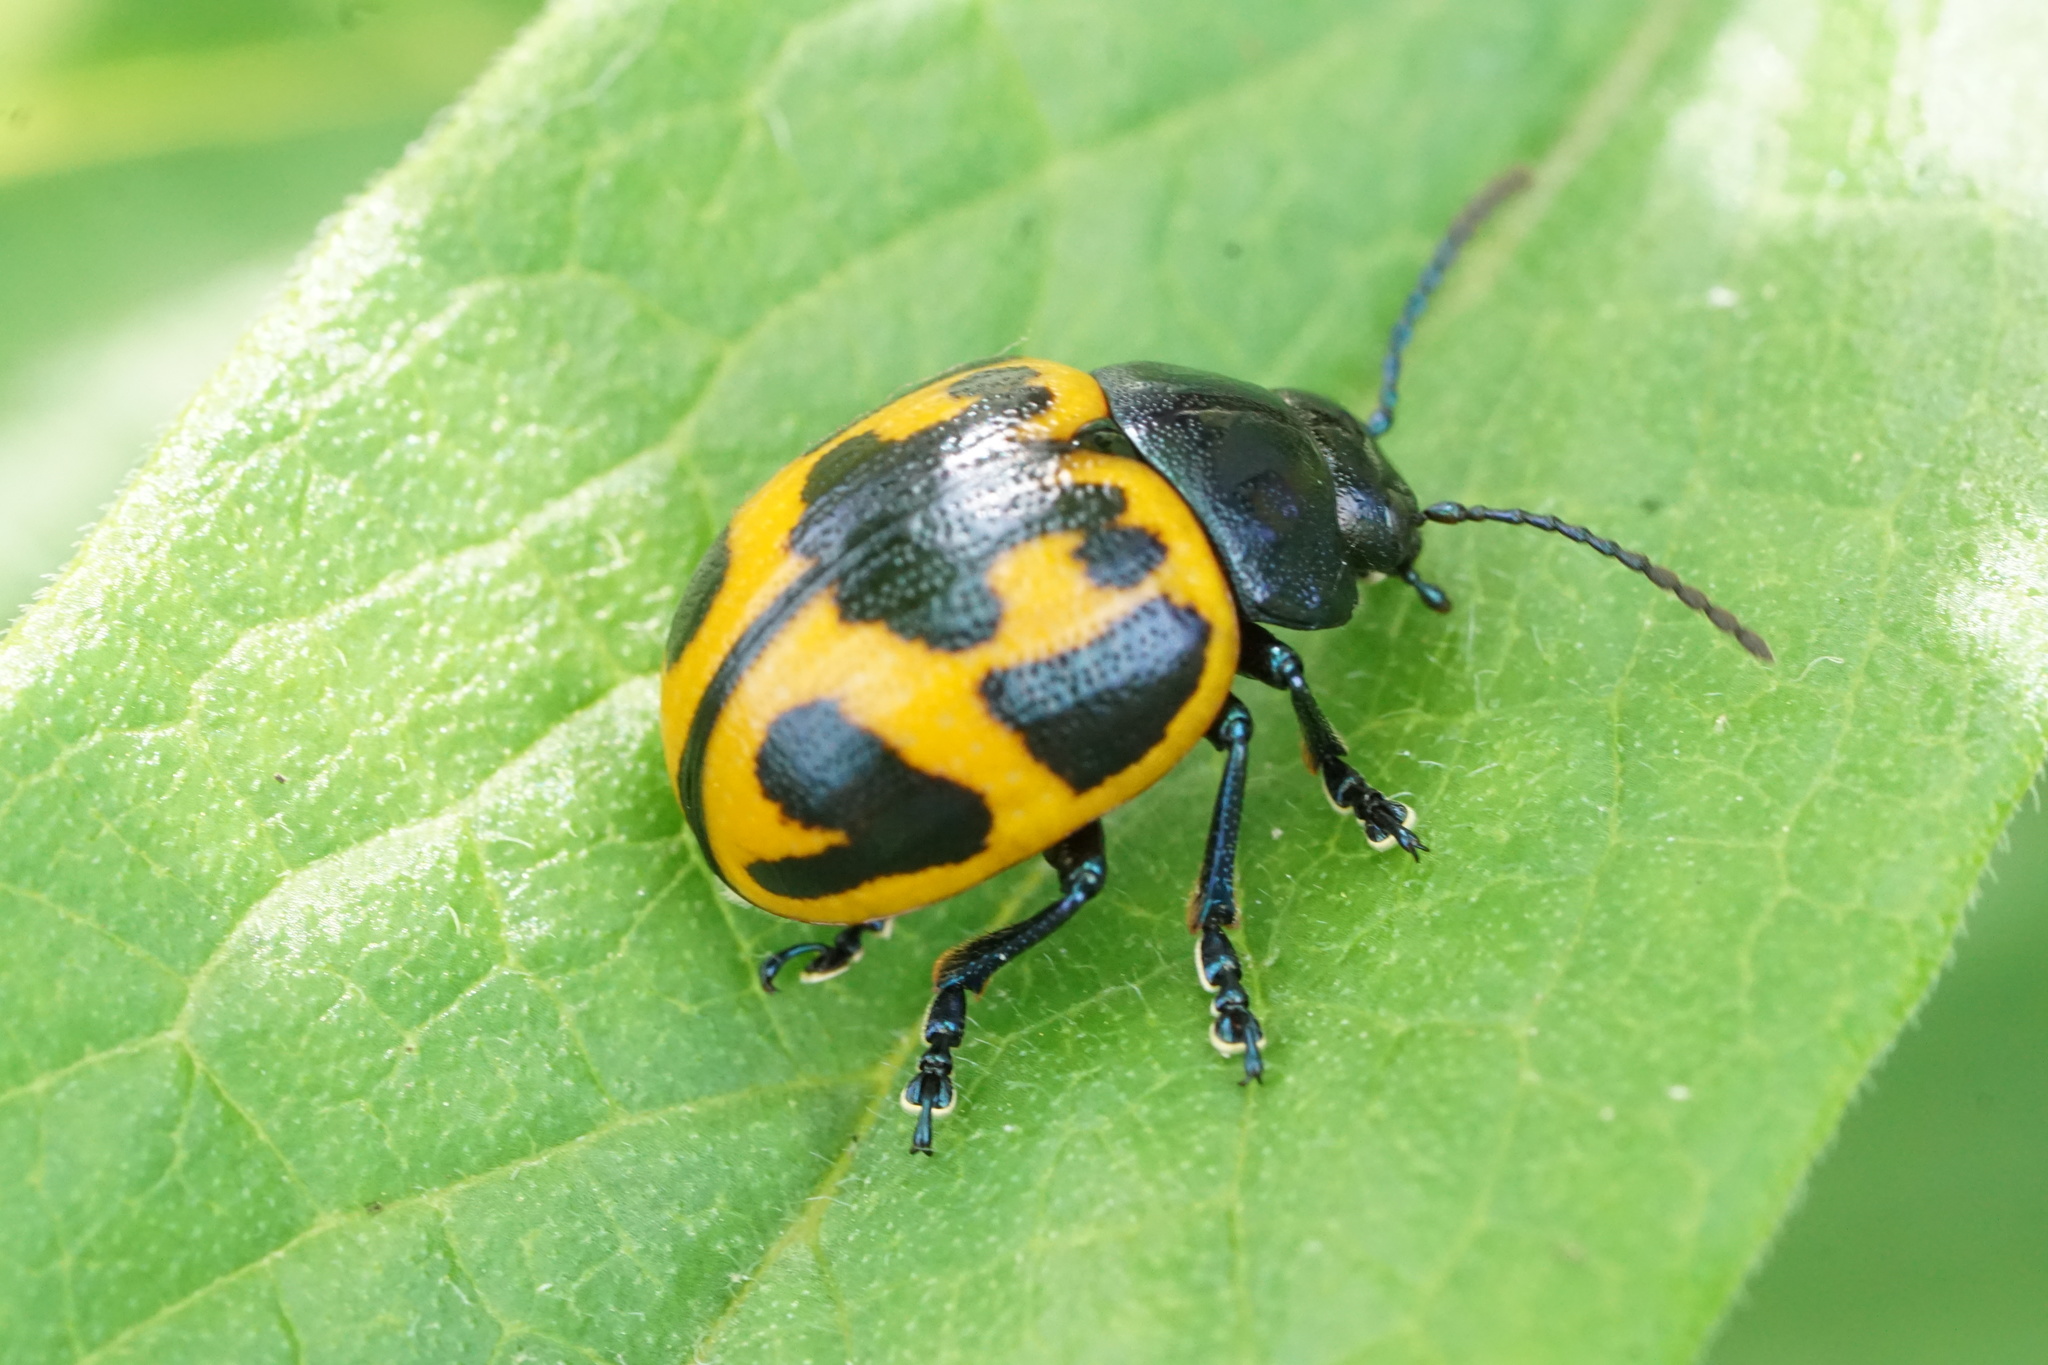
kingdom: Animalia
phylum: Arthropoda
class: Insecta
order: Coleoptera
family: Chrysomelidae
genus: Labidomera
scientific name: Labidomera clivicollis
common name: Swamp milkweed leaf beetle
